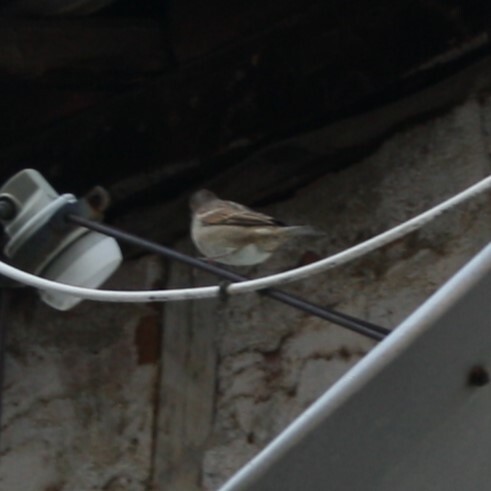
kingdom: Animalia
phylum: Chordata
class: Aves
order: Passeriformes
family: Passeridae
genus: Passer
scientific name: Passer domesticus
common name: House sparrow
